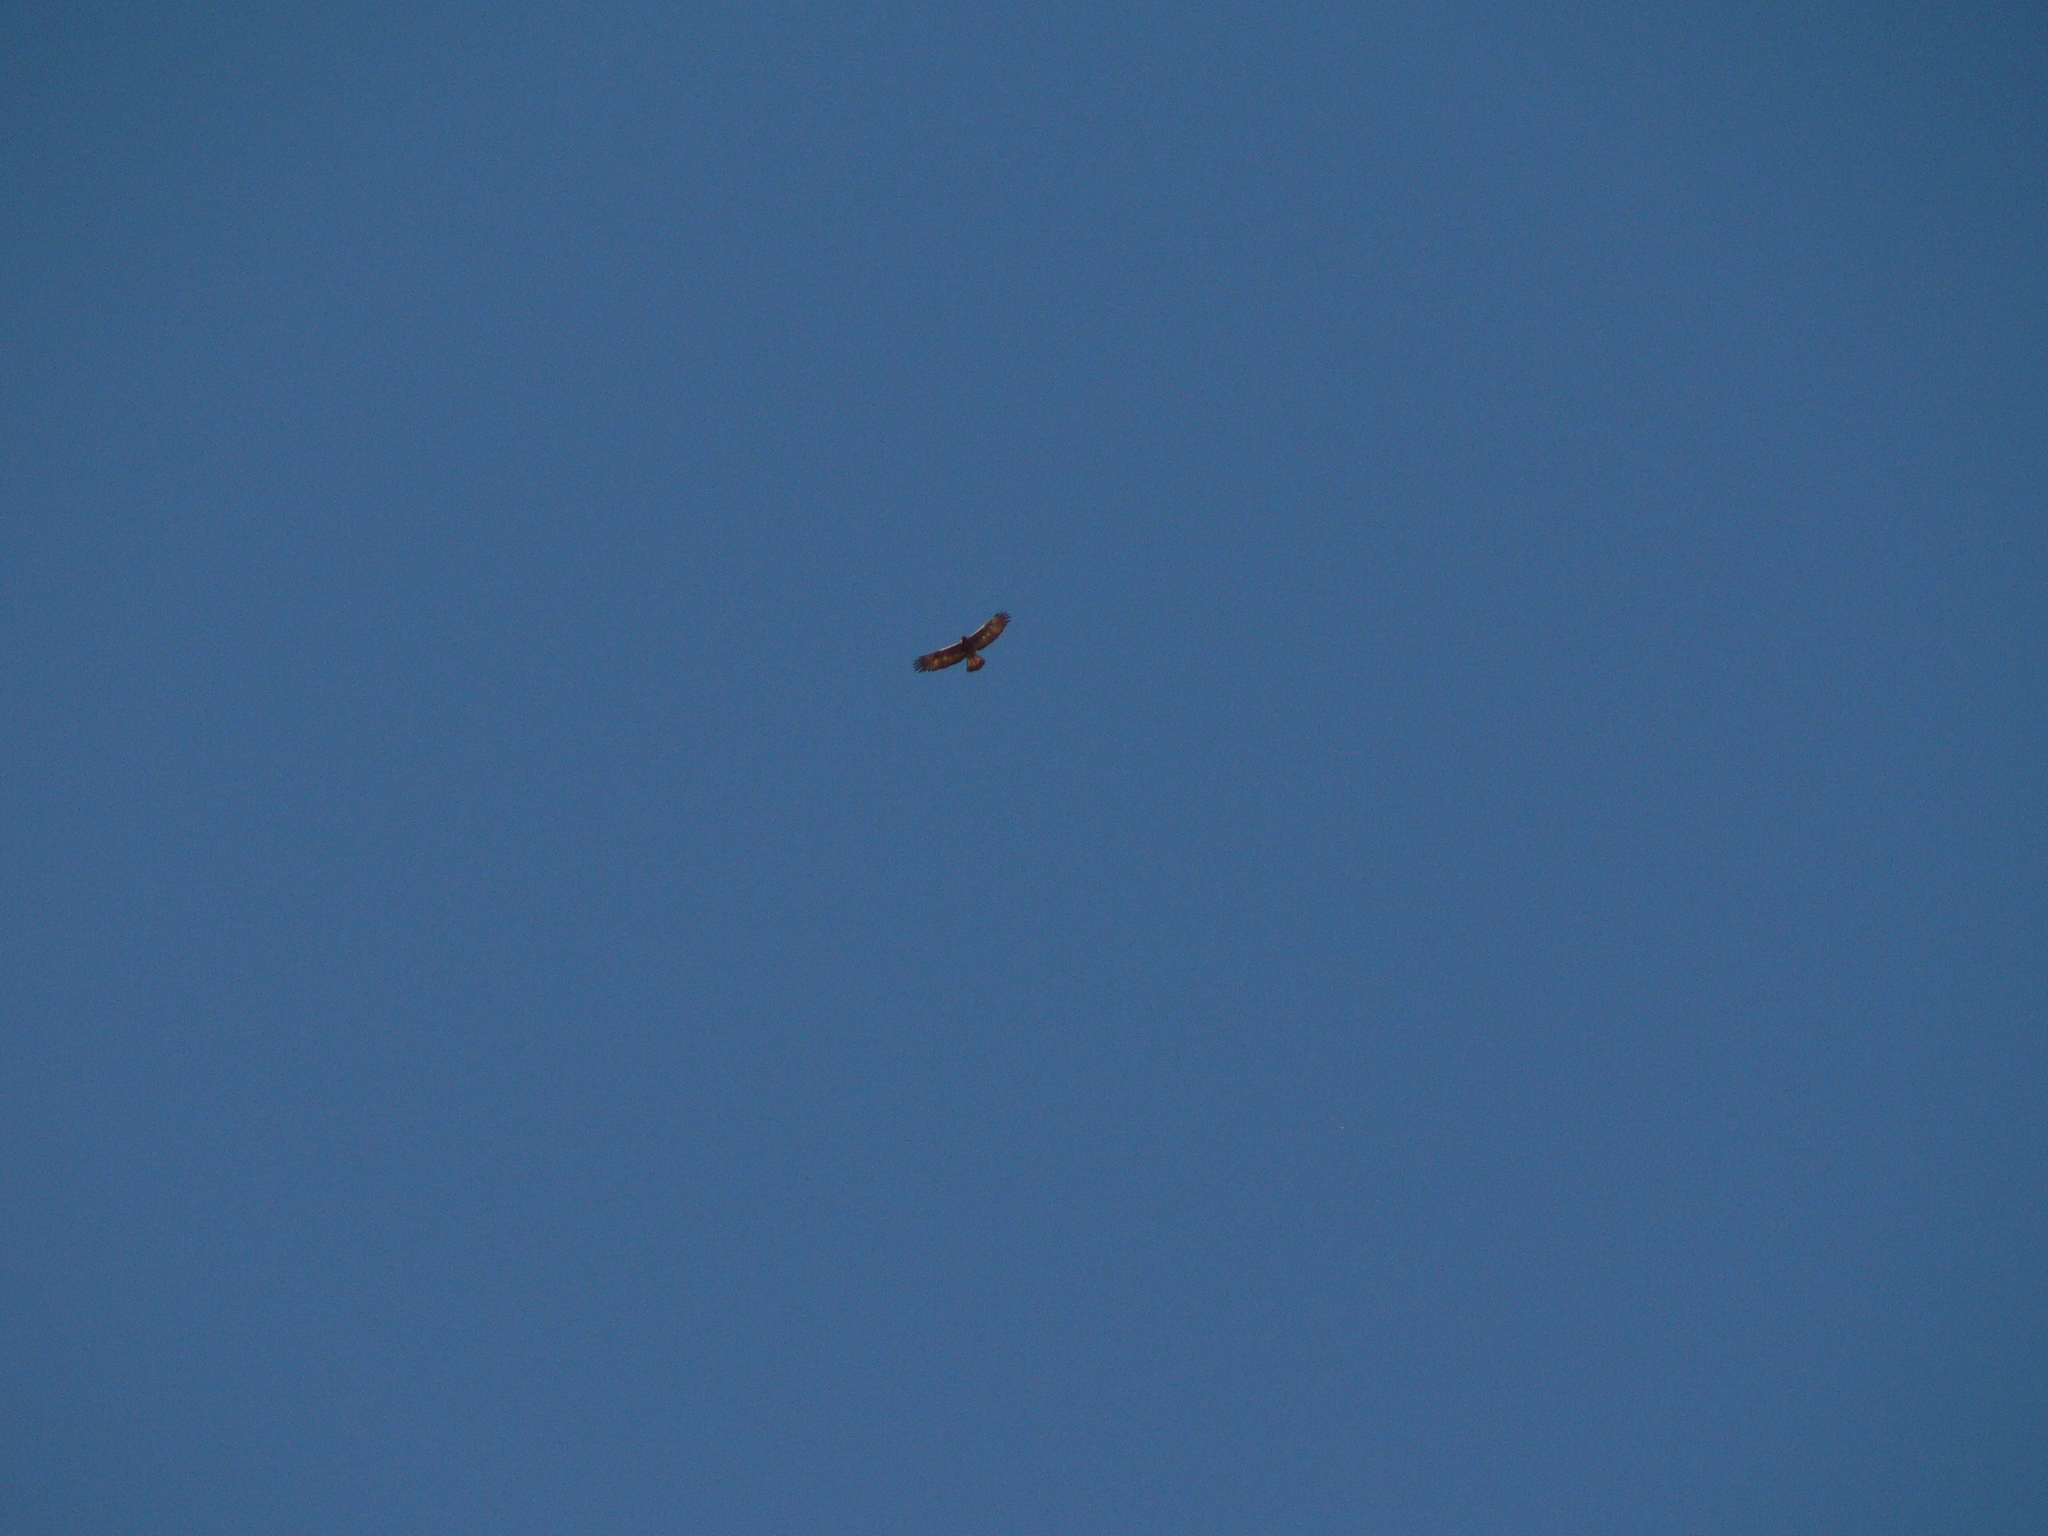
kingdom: Animalia
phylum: Chordata
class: Aves
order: Accipitriformes
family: Accipitridae
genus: Aquila
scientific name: Aquila chrysaetos
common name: Golden eagle
